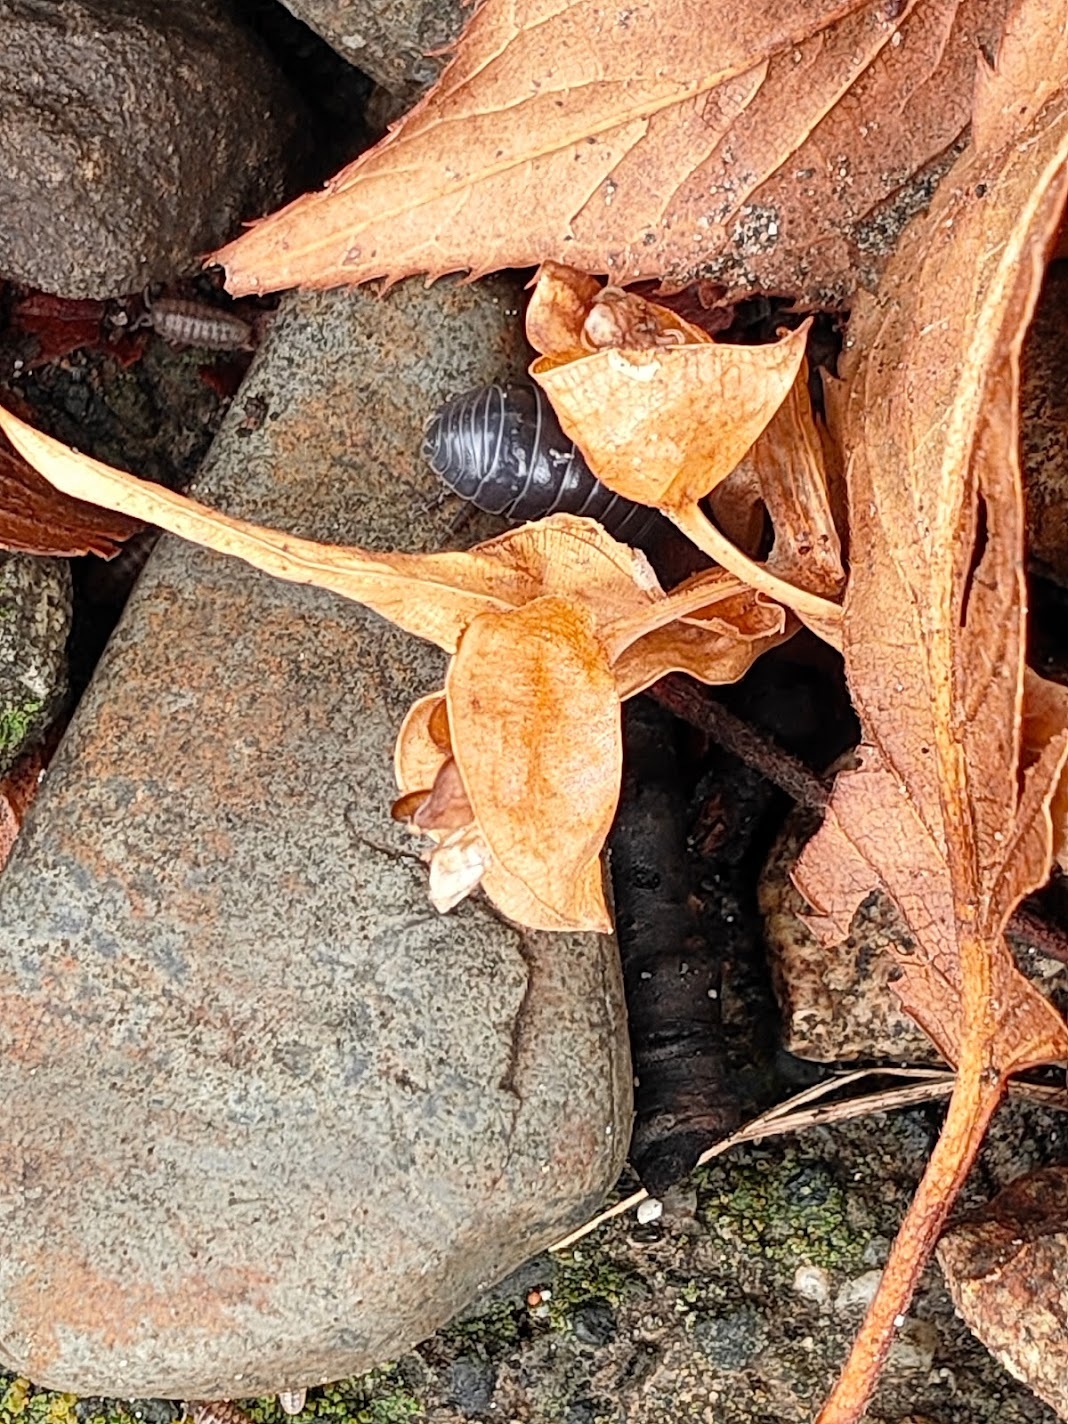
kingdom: Animalia
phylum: Arthropoda
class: Malacostraca
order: Isopoda
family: Armadillidiidae
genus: Armadillidium
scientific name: Armadillidium vulgare
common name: Common pill woodlouse
